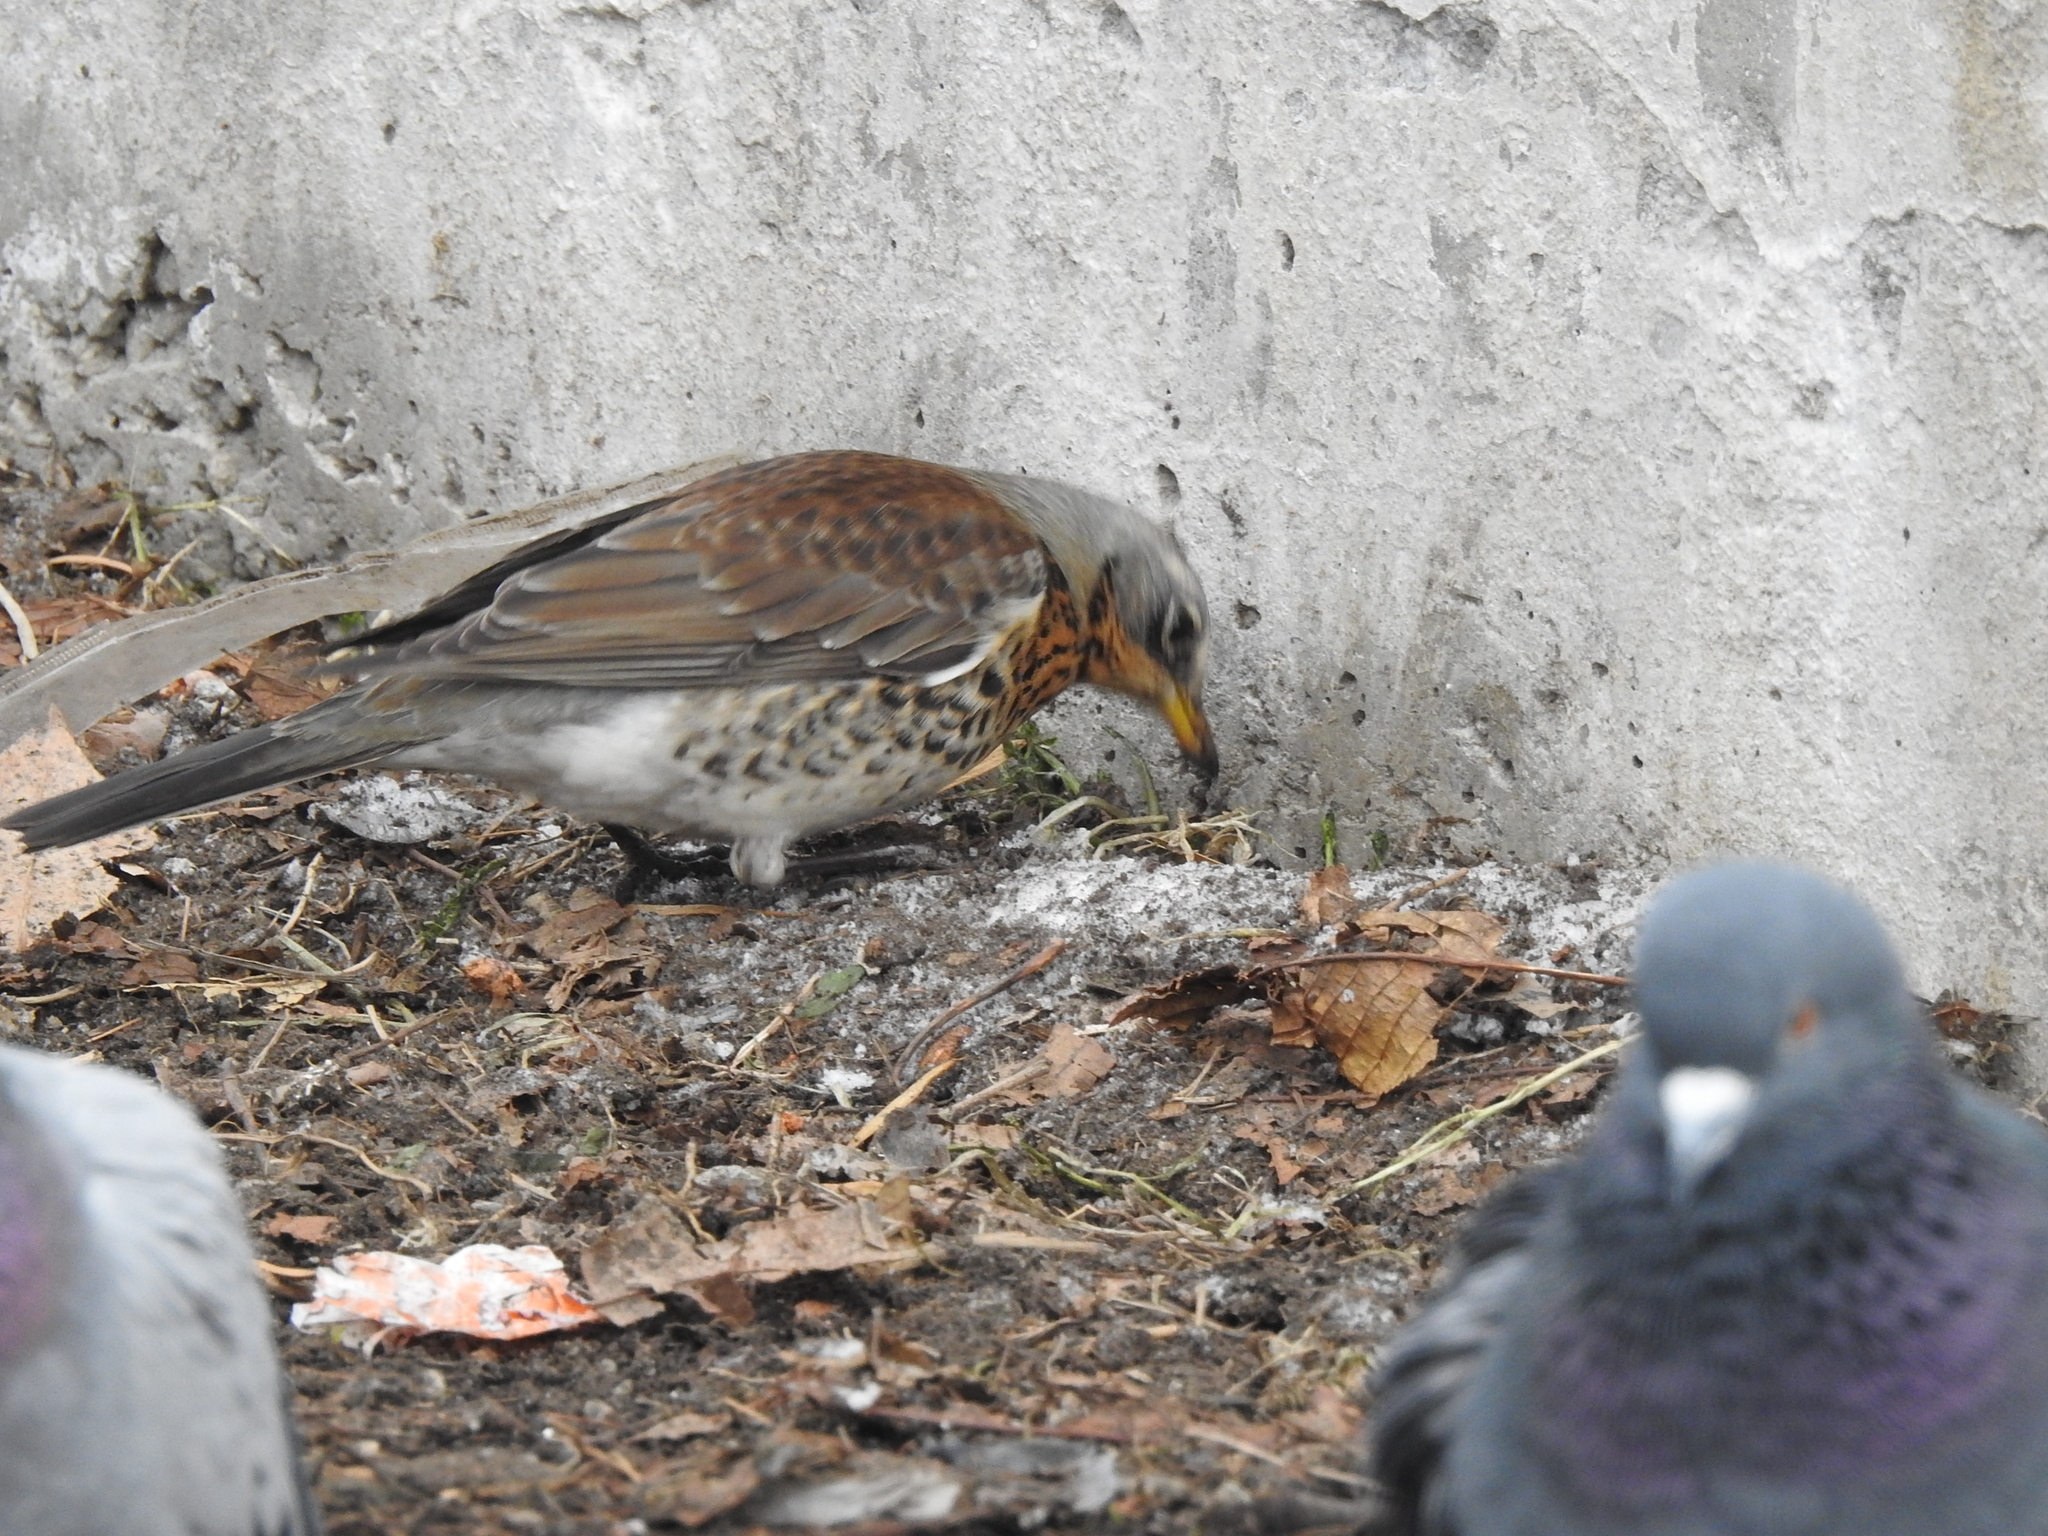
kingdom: Animalia
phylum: Chordata
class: Aves
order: Passeriformes
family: Turdidae
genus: Turdus
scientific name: Turdus pilaris
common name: Fieldfare
